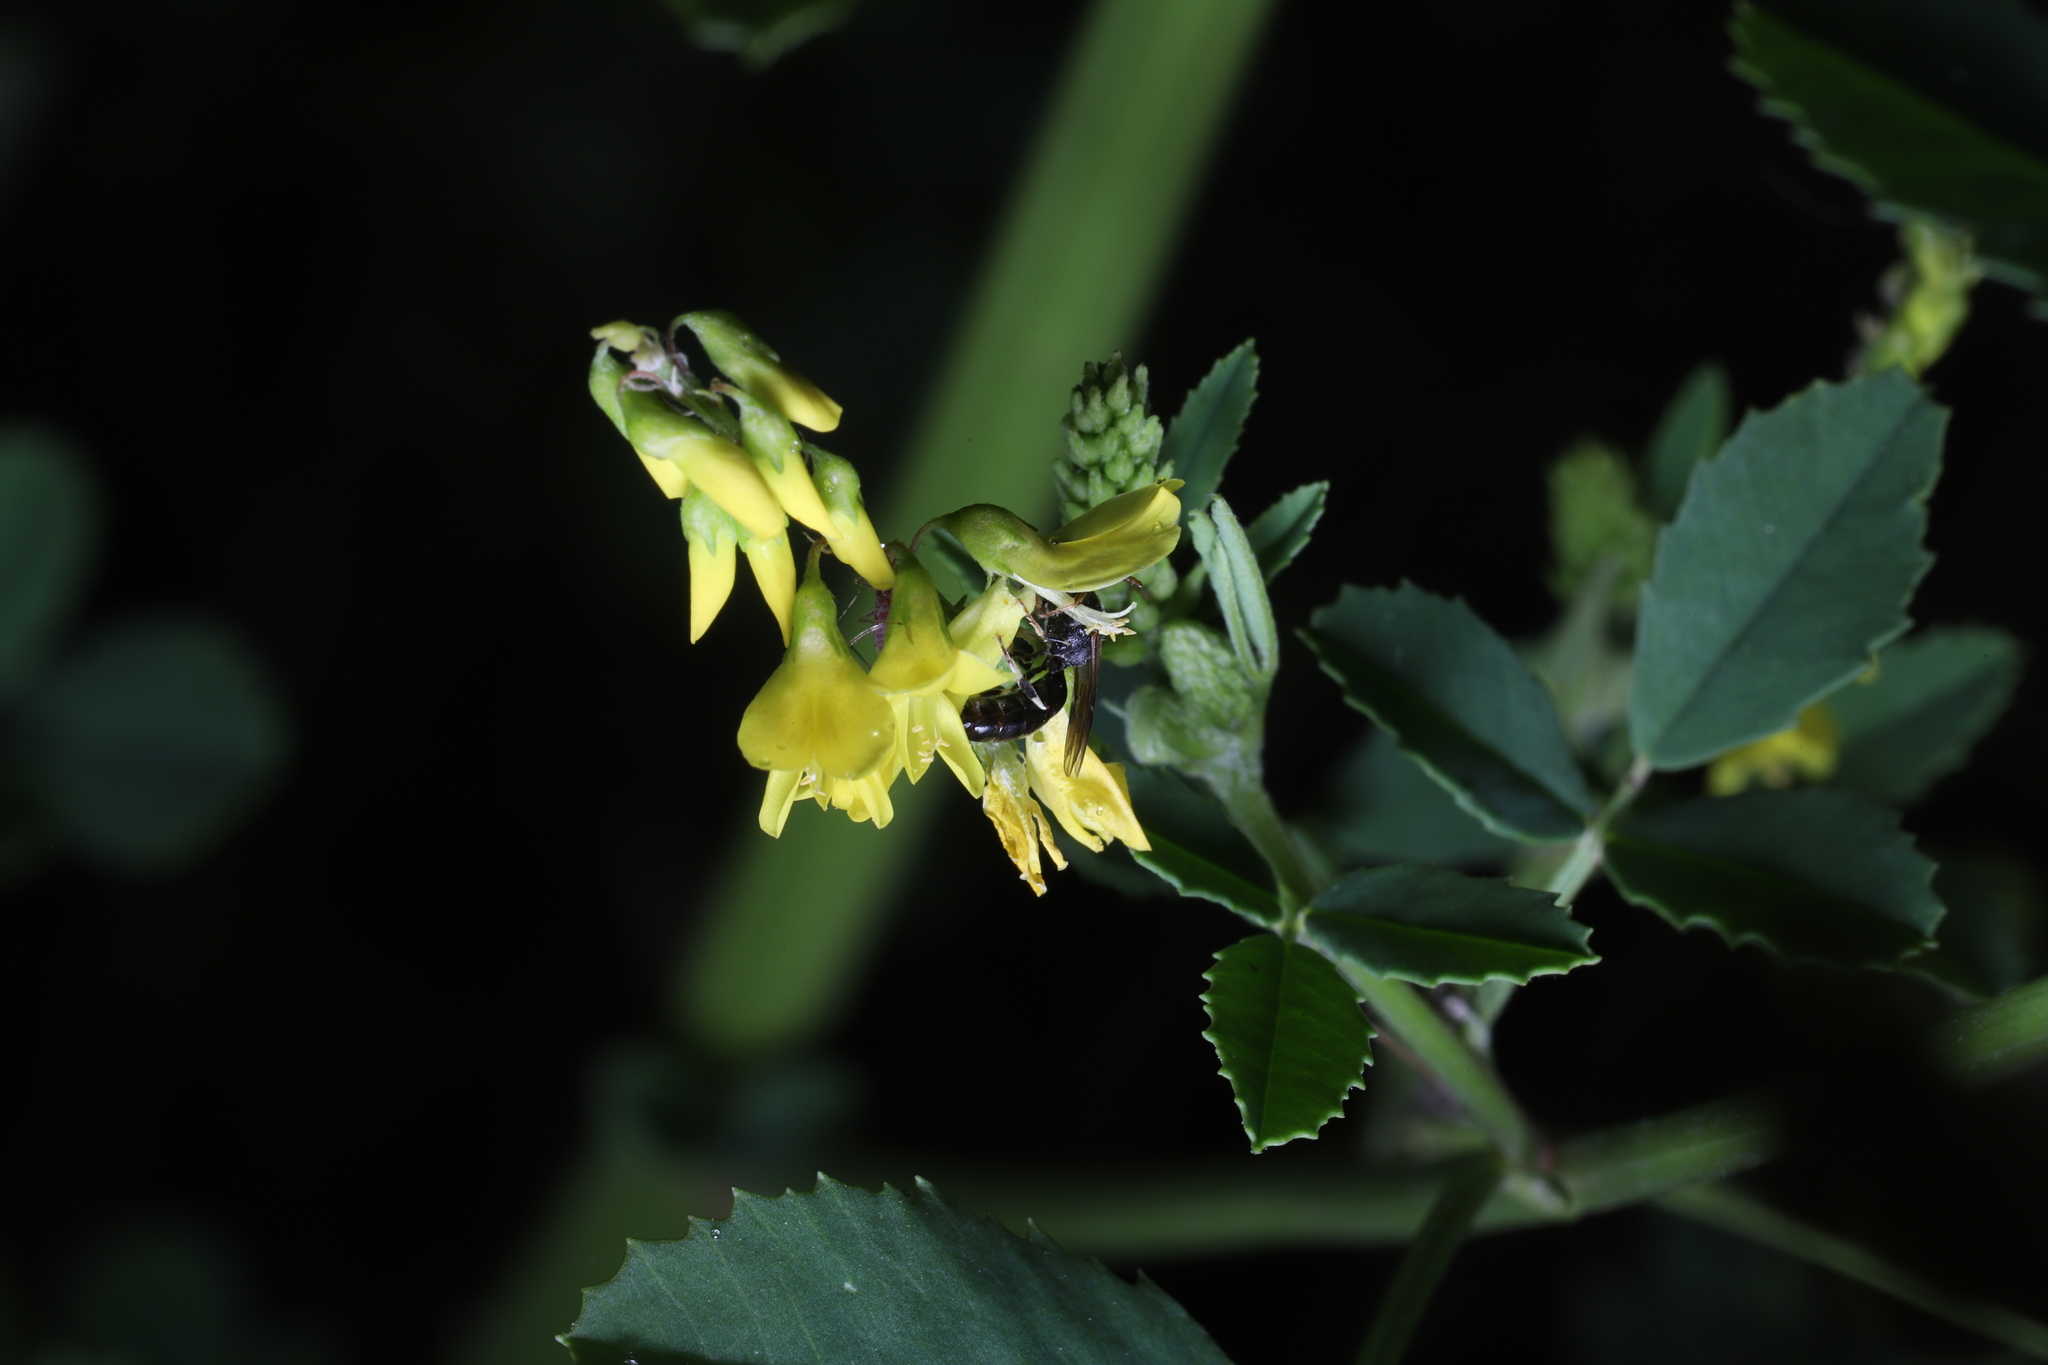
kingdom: Plantae
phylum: Tracheophyta
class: Magnoliopsida
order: Fabales
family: Fabaceae
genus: Melilotus
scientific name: Melilotus officinalis
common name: Sweetclover
